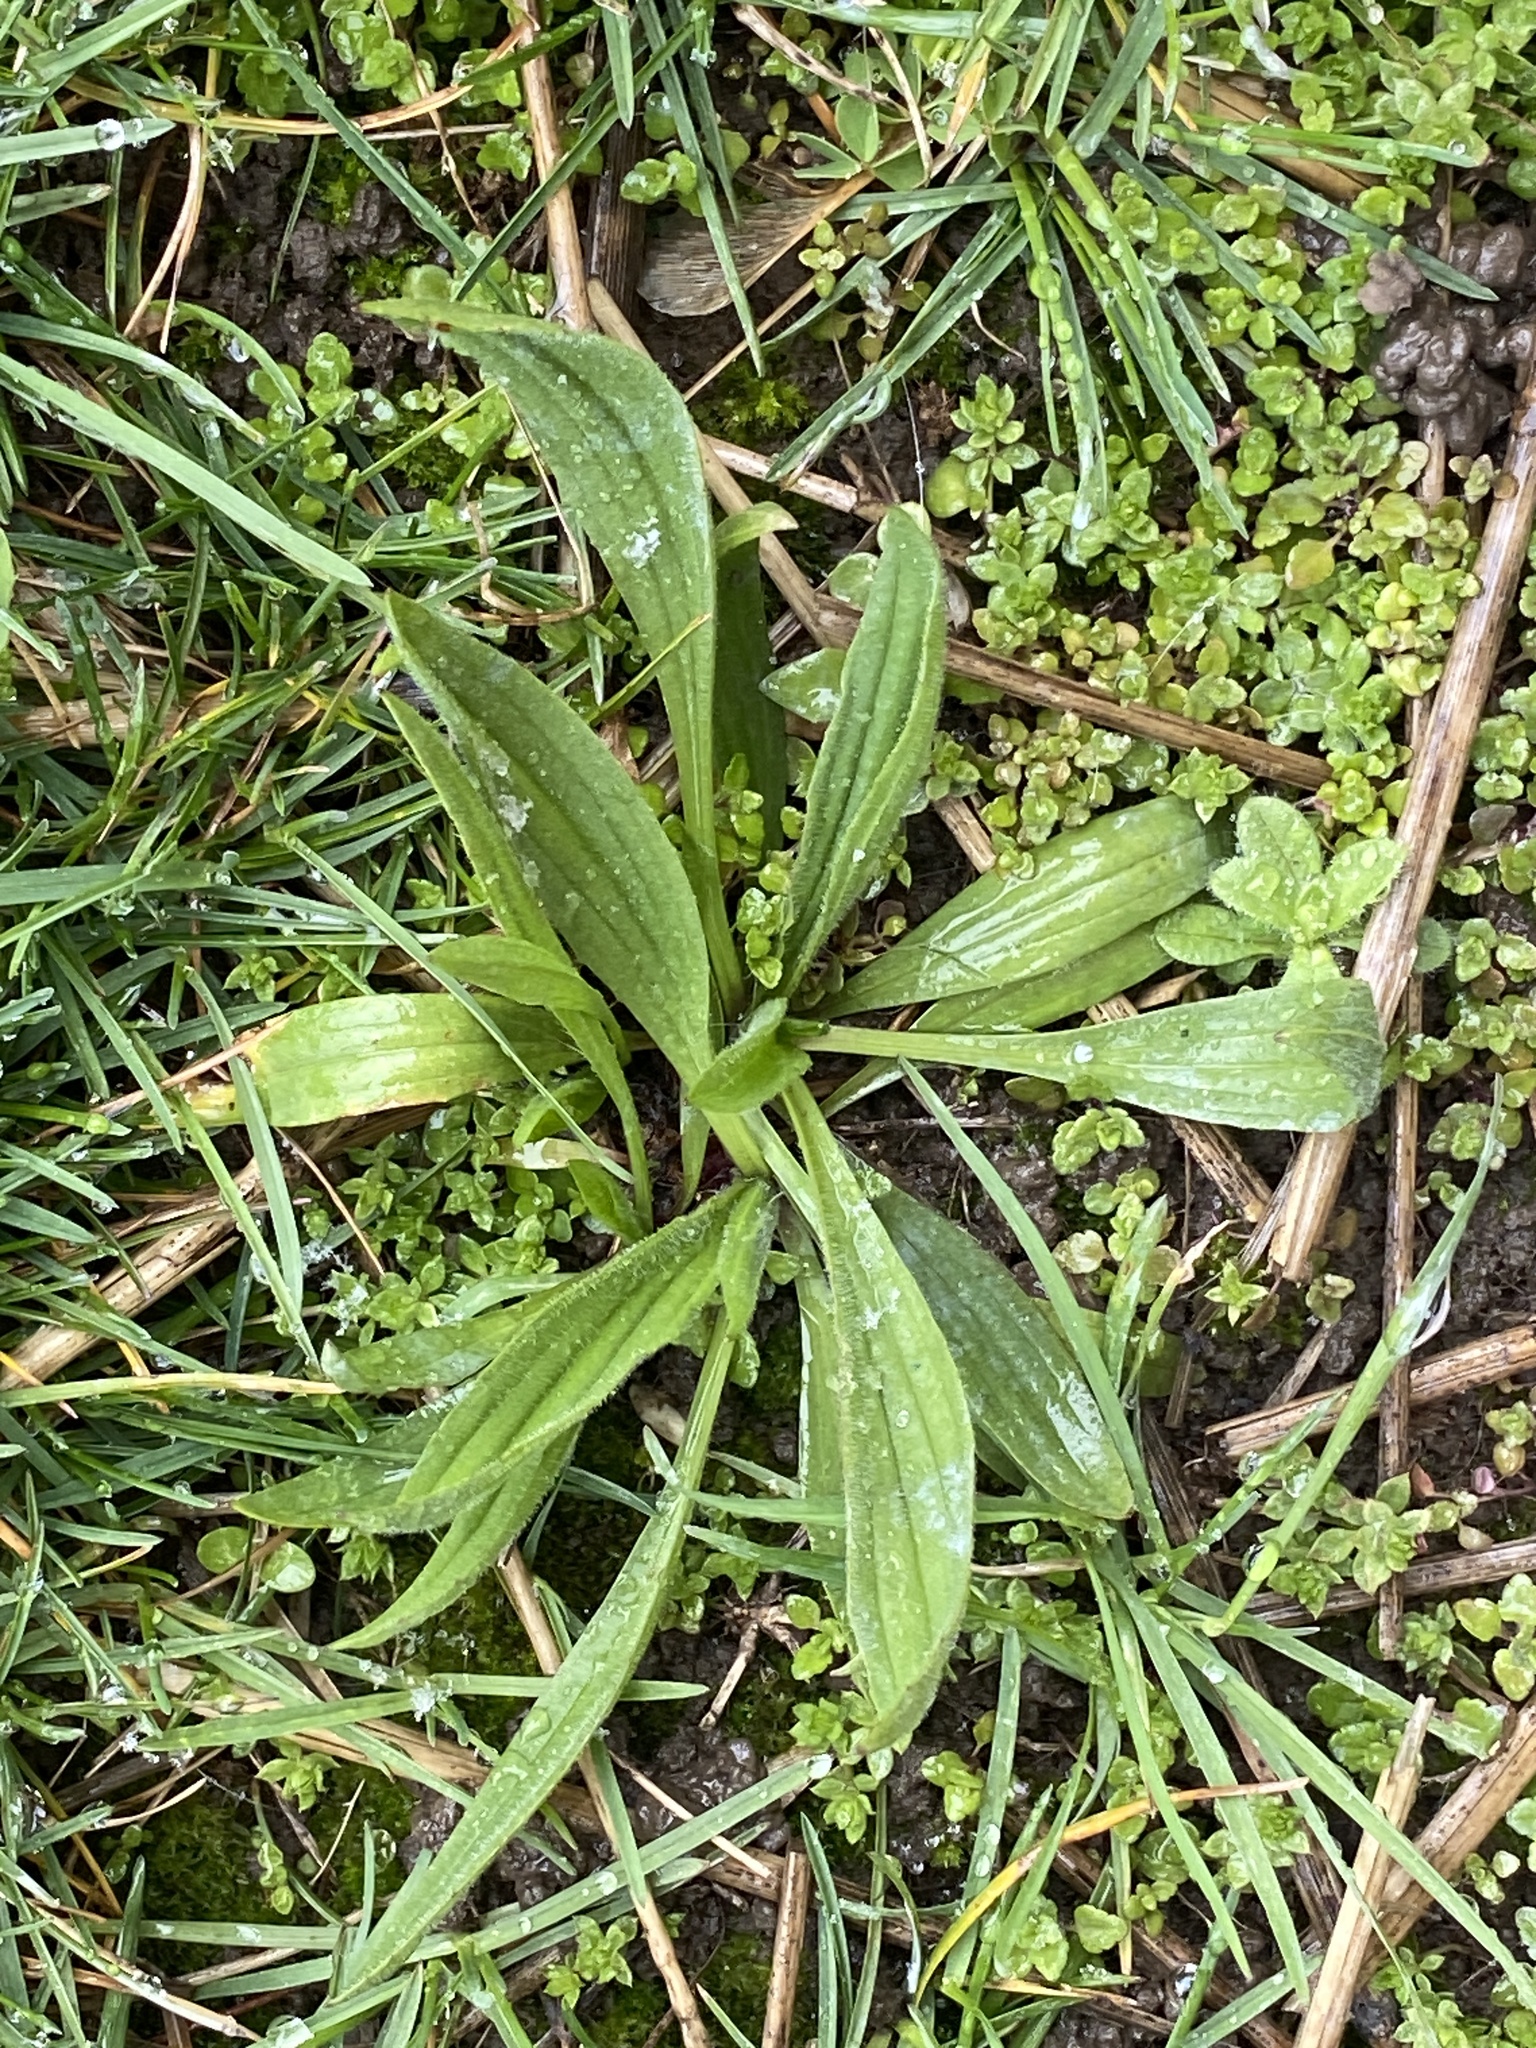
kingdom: Plantae
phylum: Tracheophyta
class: Magnoliopsida
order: Lamiales
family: Plantaginaceae
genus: Plantago
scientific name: Plantago lanceolata
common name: Ribwort plantain
